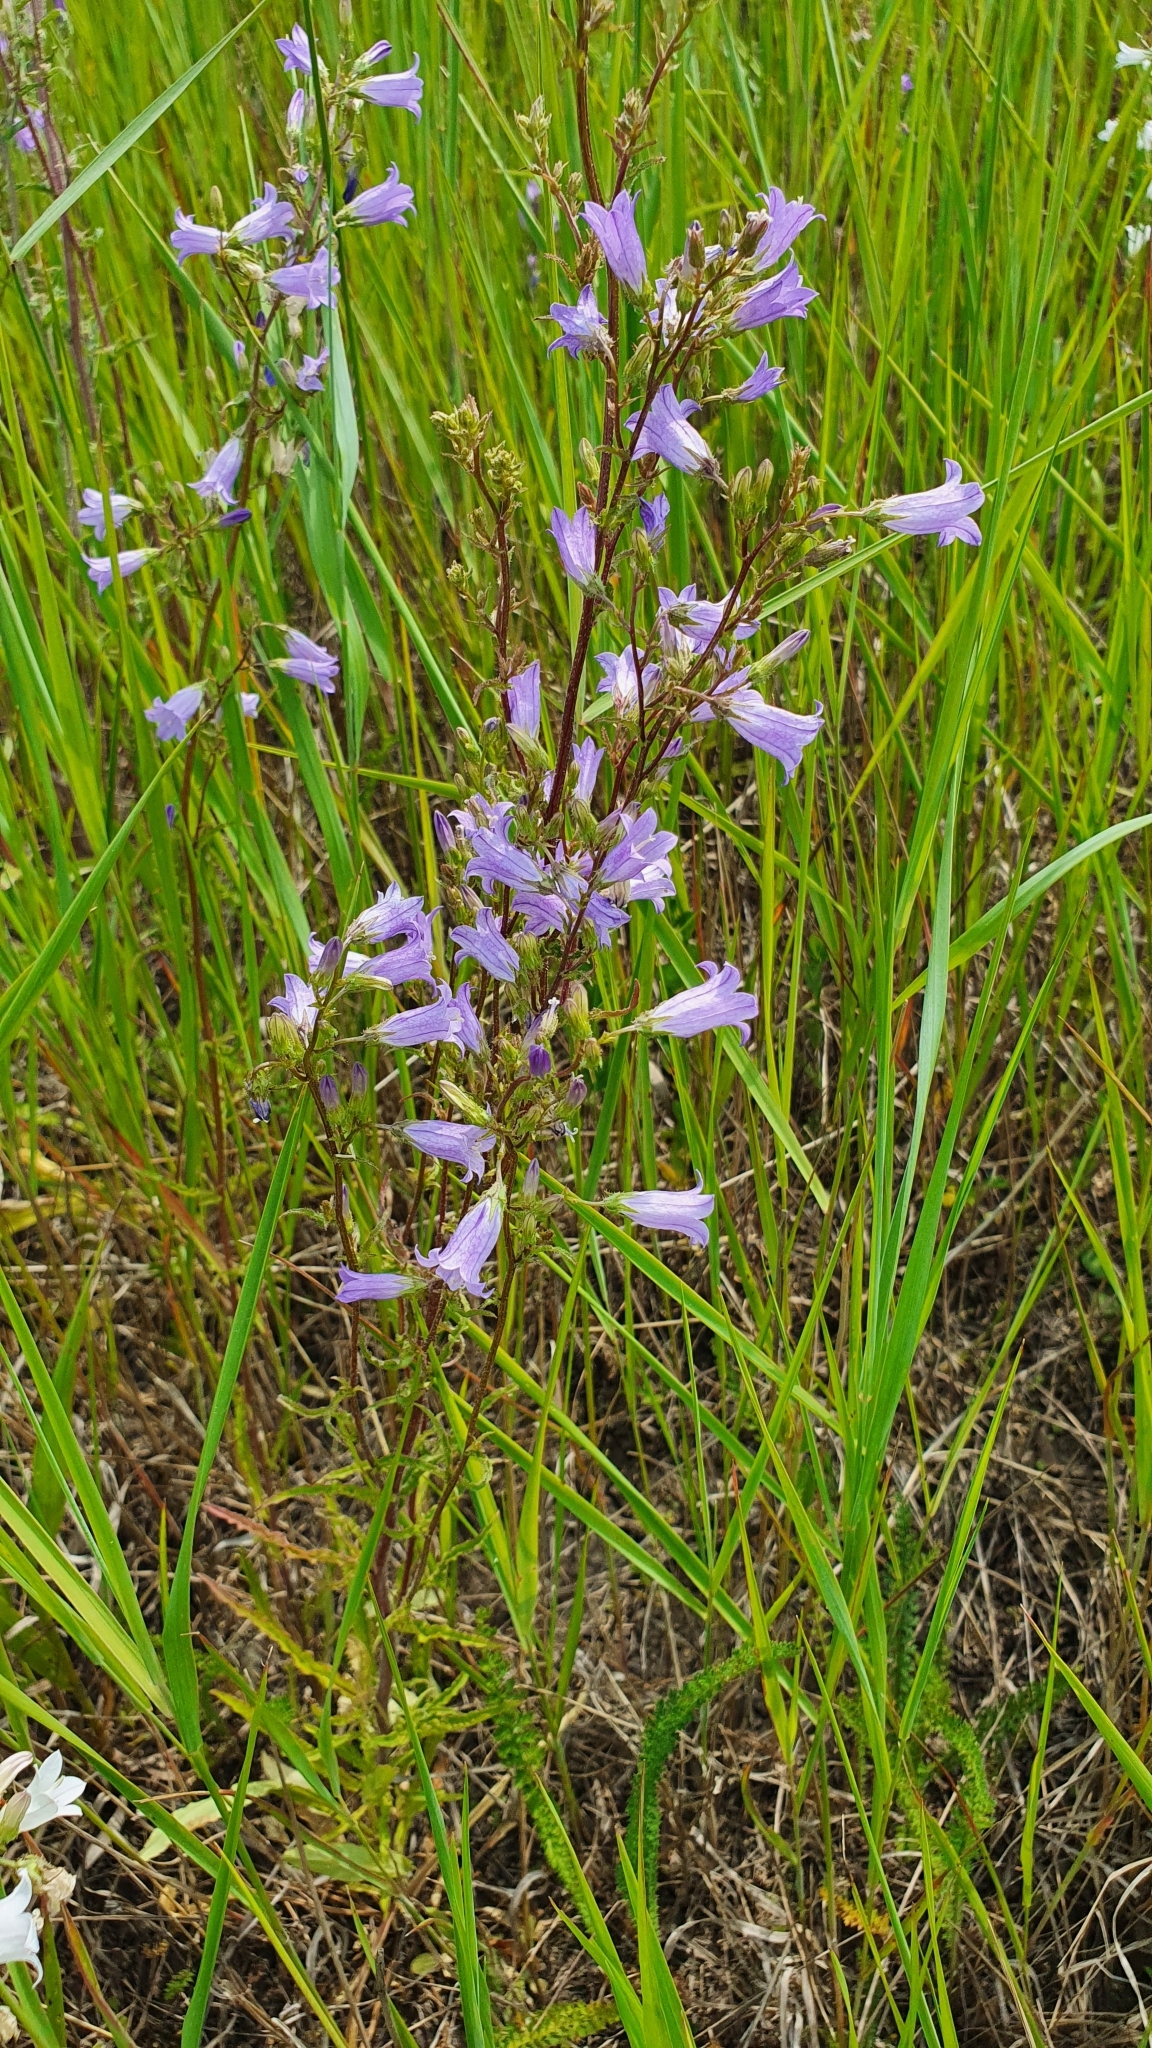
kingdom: Plantae
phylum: Tracheophyta
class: Magnoliopsida
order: Asterales
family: Campanulaceae
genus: Campanula
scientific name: Campanula sibirica
